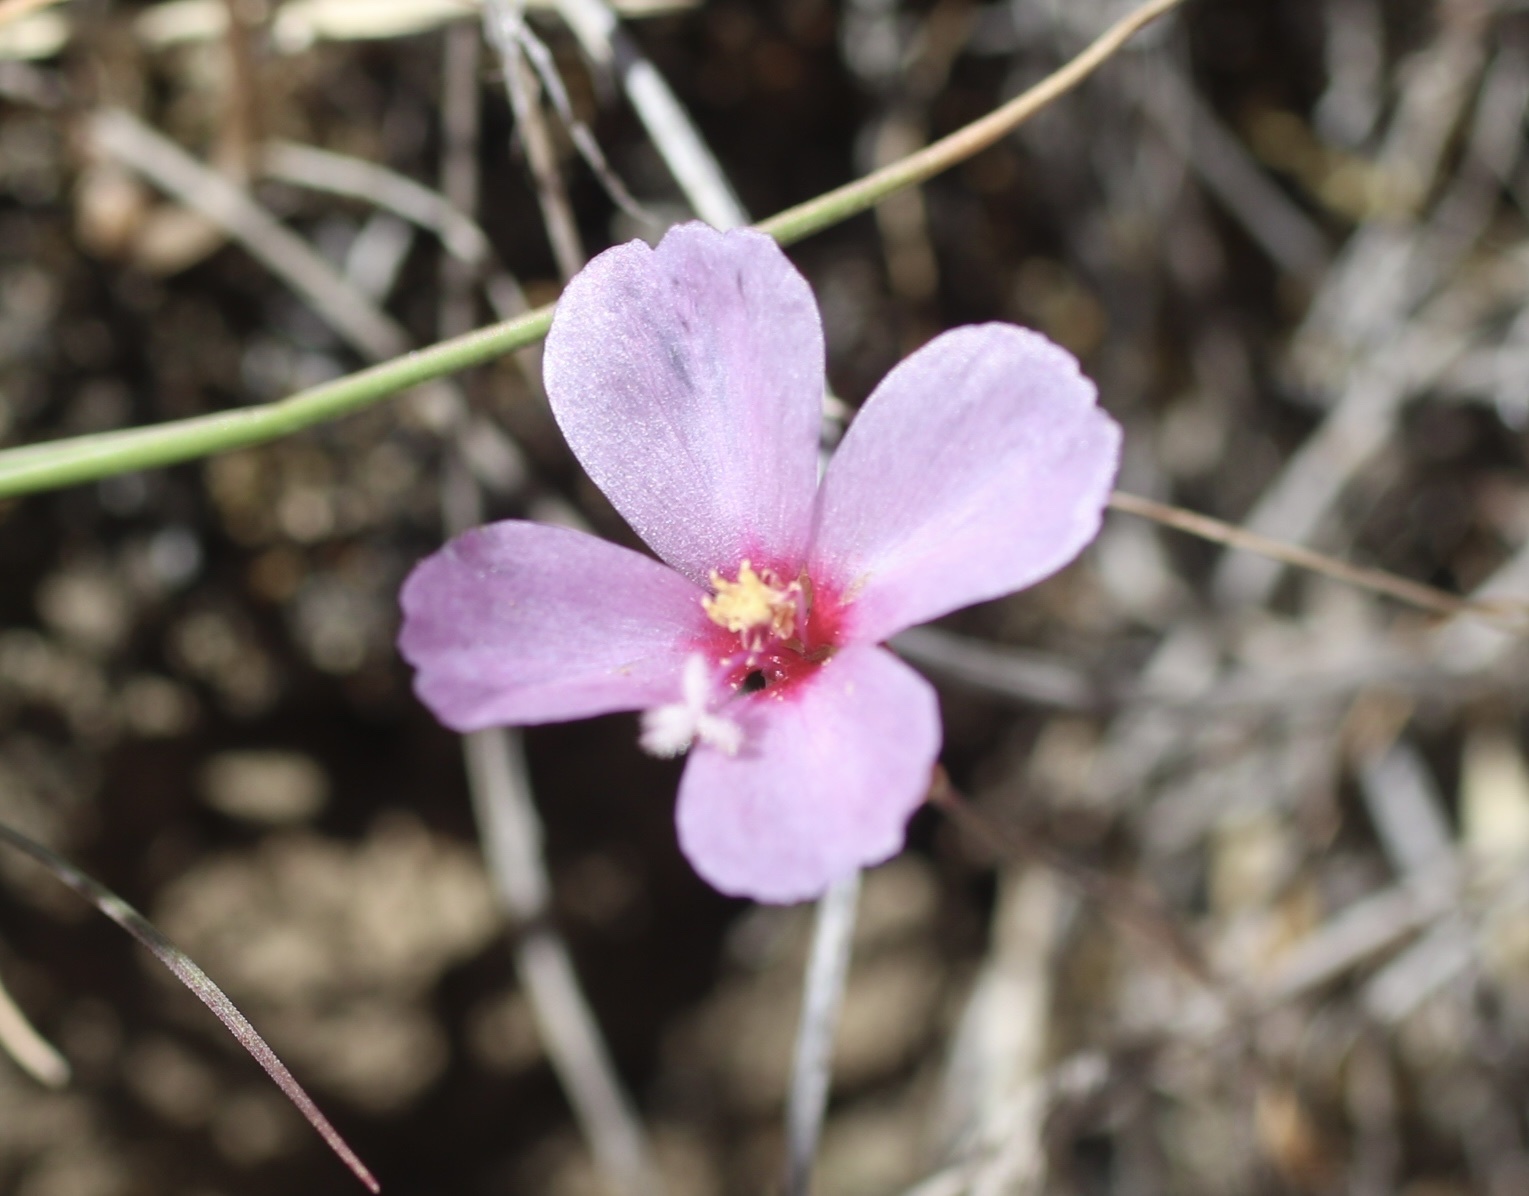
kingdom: Plantae
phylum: Tracheophyta
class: Magnoliopsida
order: Myrtales
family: Onagraceae
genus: Clarkia
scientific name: Clarkia rubicunda
